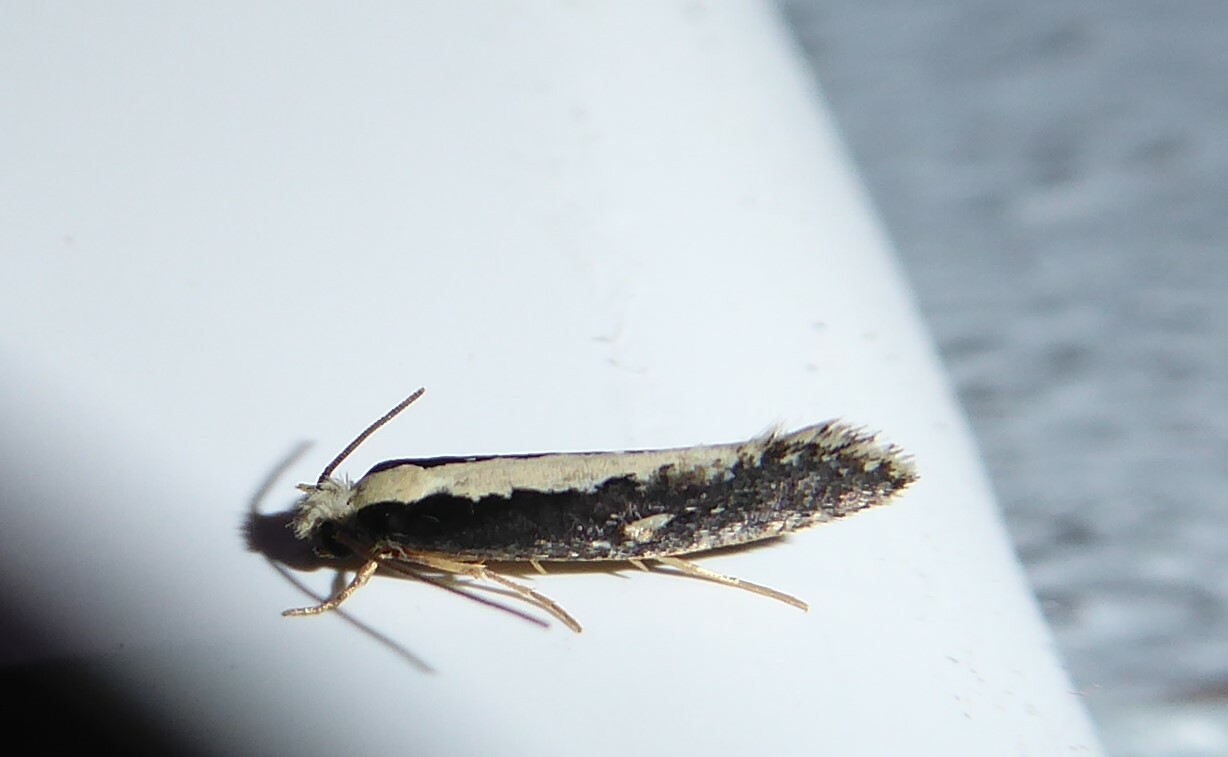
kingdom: Animalia
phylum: Arthropoda
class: Insecta
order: Lepidoptera
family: Tineidae
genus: Monopis
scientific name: Monopis ethelella
